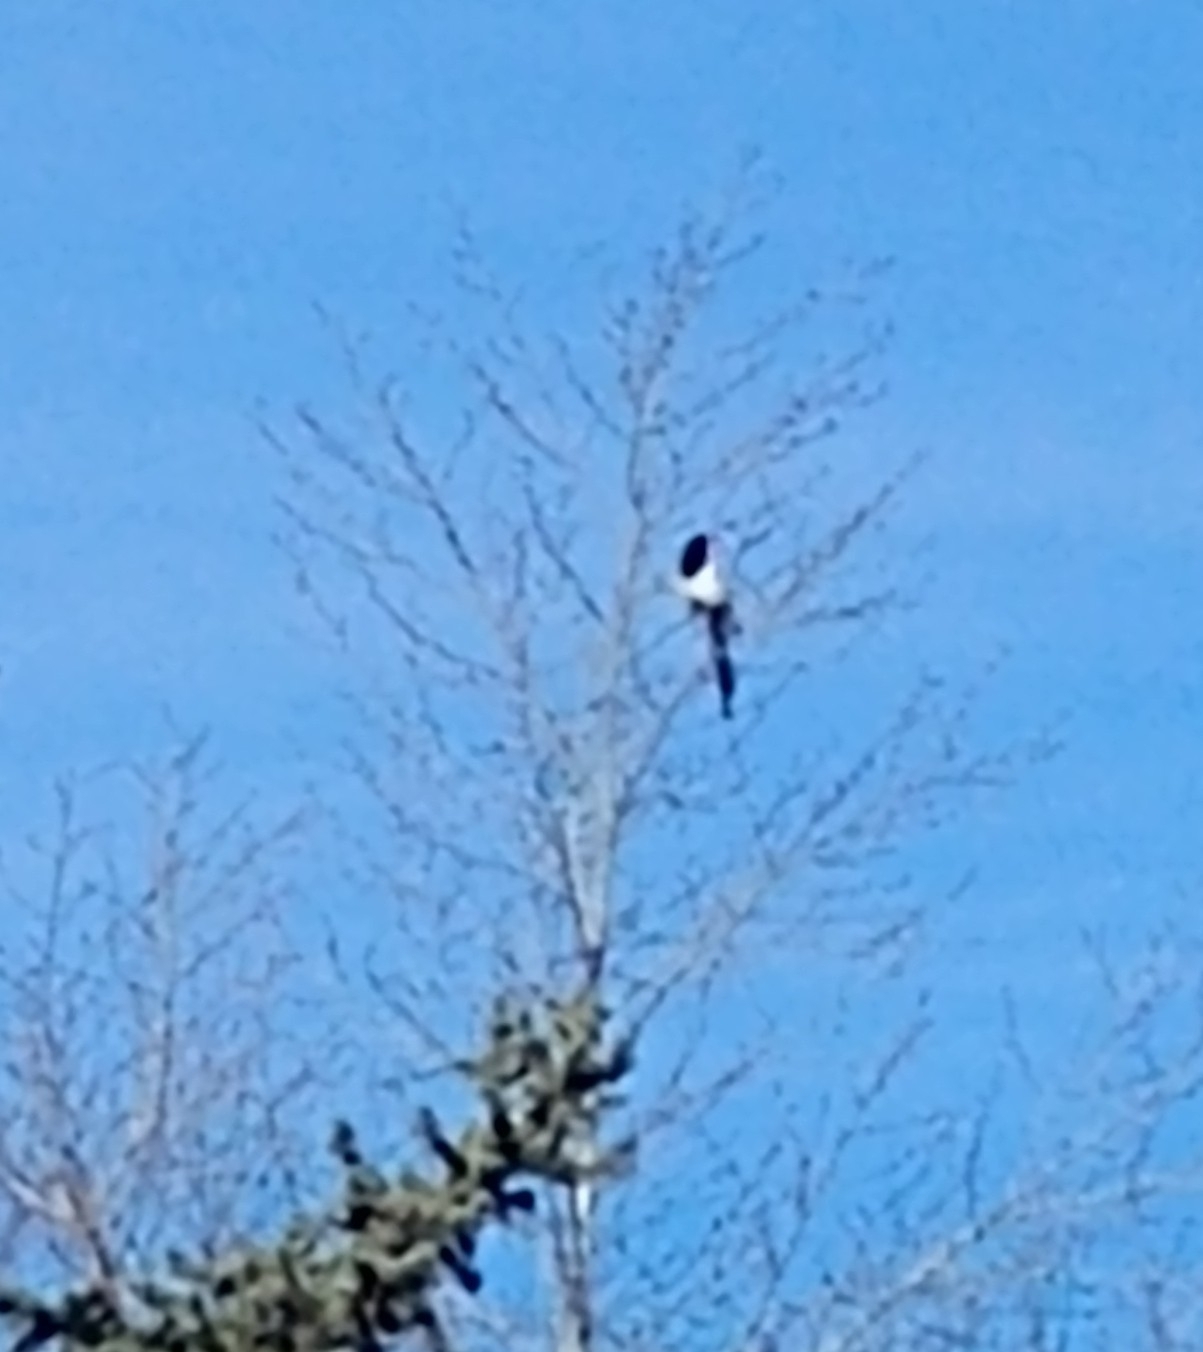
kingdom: Animalia
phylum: Chordata
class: Aves
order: Passeriformes
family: Corvidae
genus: Pica
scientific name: Pica hudsonia
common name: Black-billed magpie
